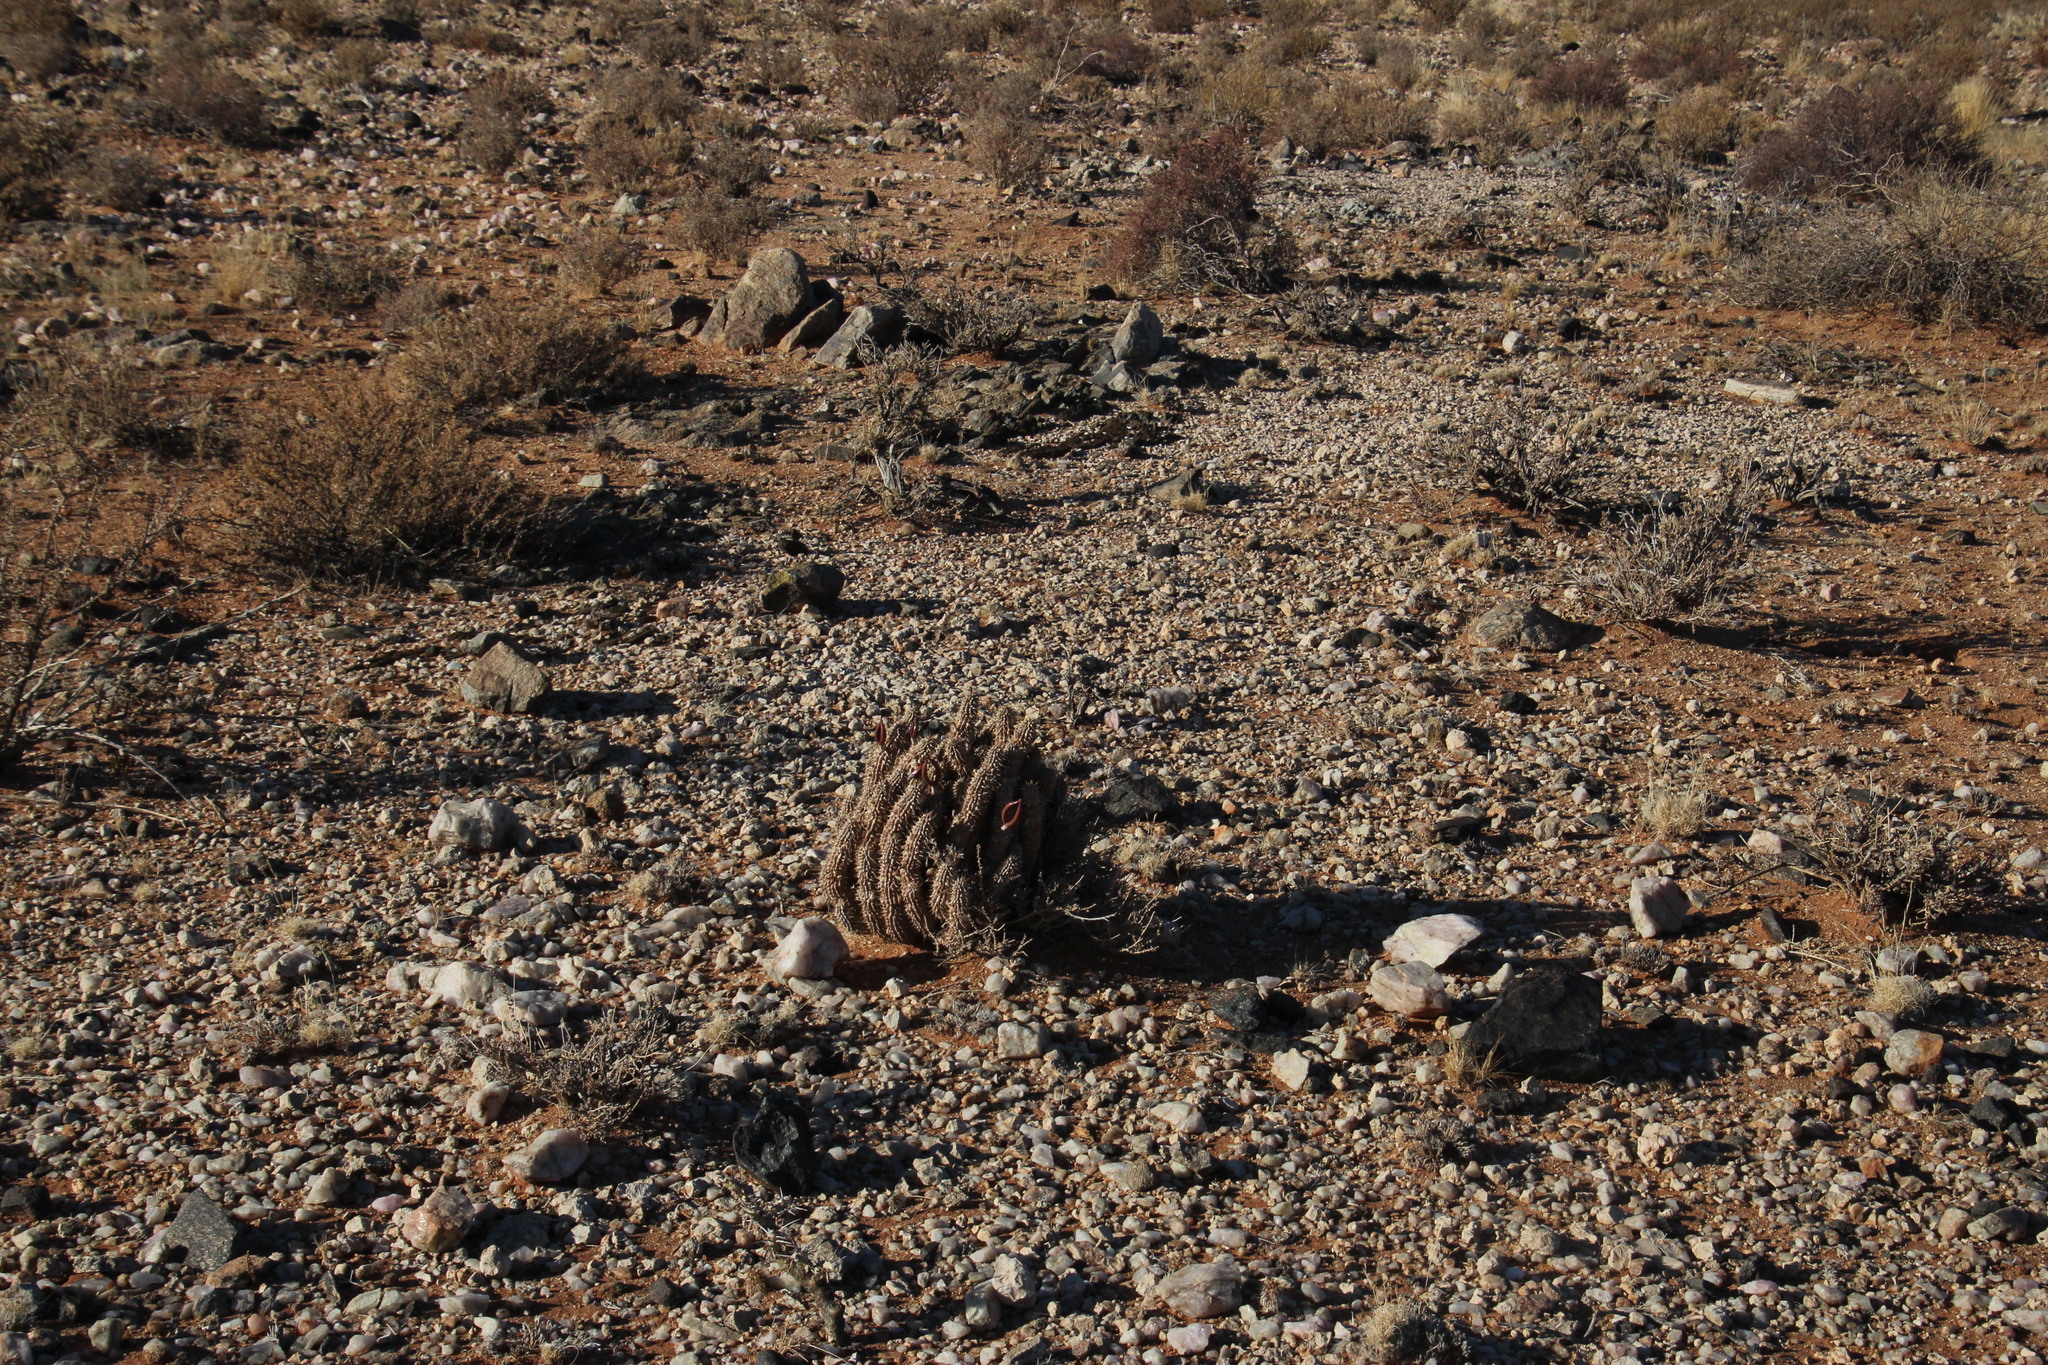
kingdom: Plantae
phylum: Tracheophyta
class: Magnoliopsida
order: Gentianales
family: Apocynaceae
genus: Hoodia
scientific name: Hoodia gordonii
